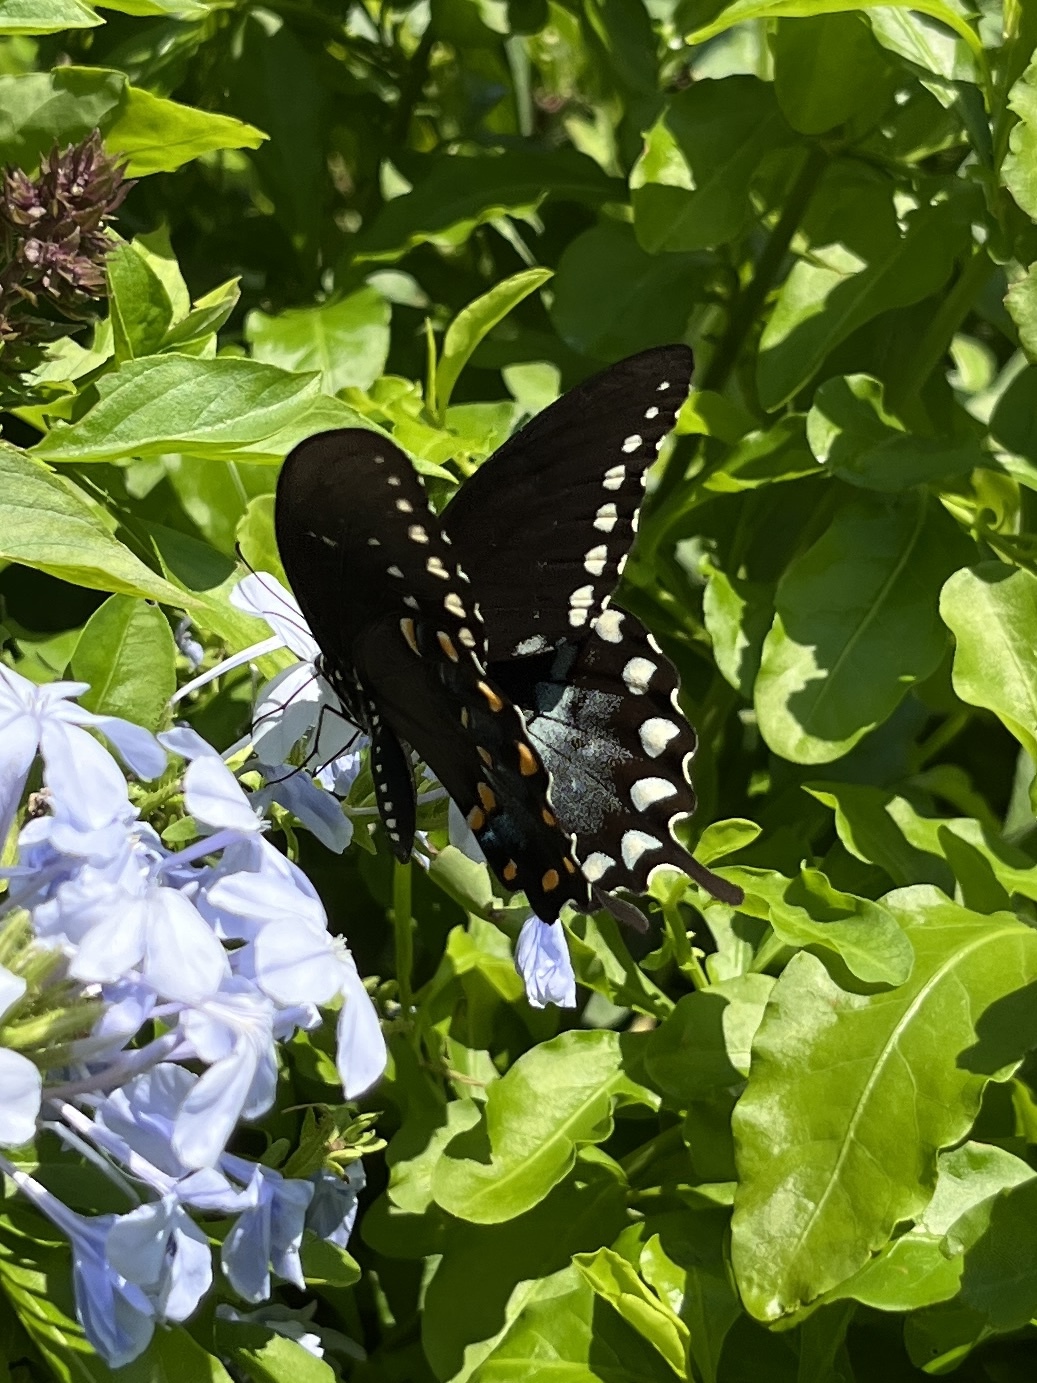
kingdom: Animalia
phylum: Arthropoda
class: Insecta
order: Lepidoptera
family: Papilionidae
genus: Papilio
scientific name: Papilio troilus
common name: Spicebush swallowtail
